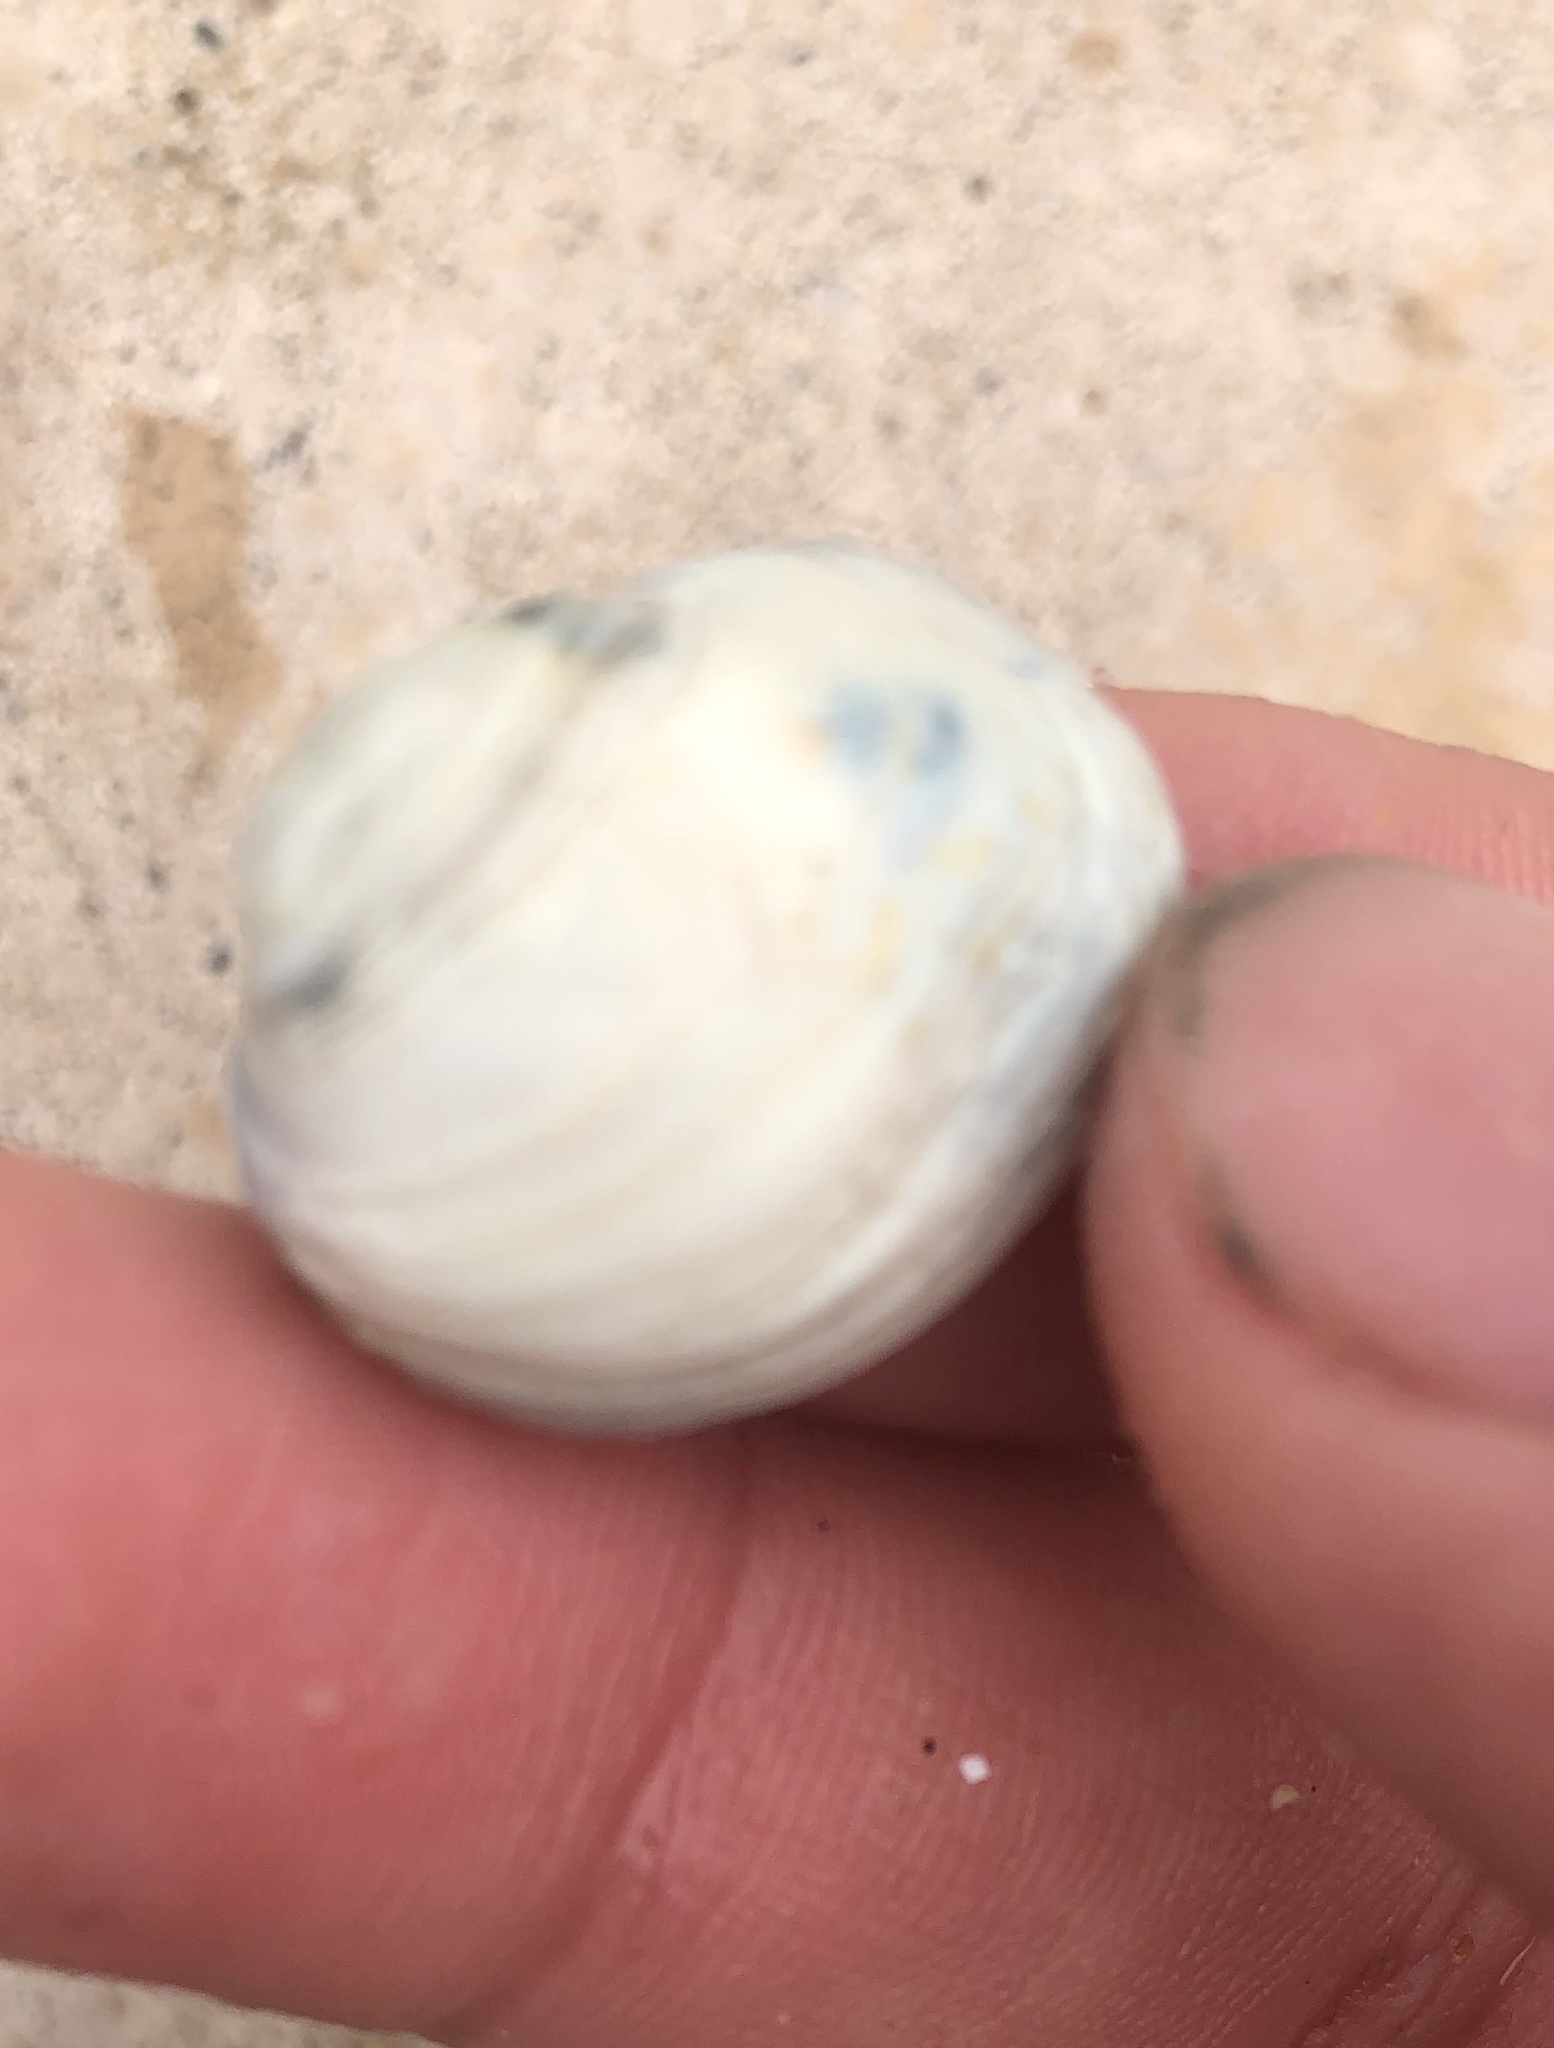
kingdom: Animalia
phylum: Mollusca
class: Bivalvia
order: Venerida
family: Veneridae
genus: Petricola
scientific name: Petricola carditoides
